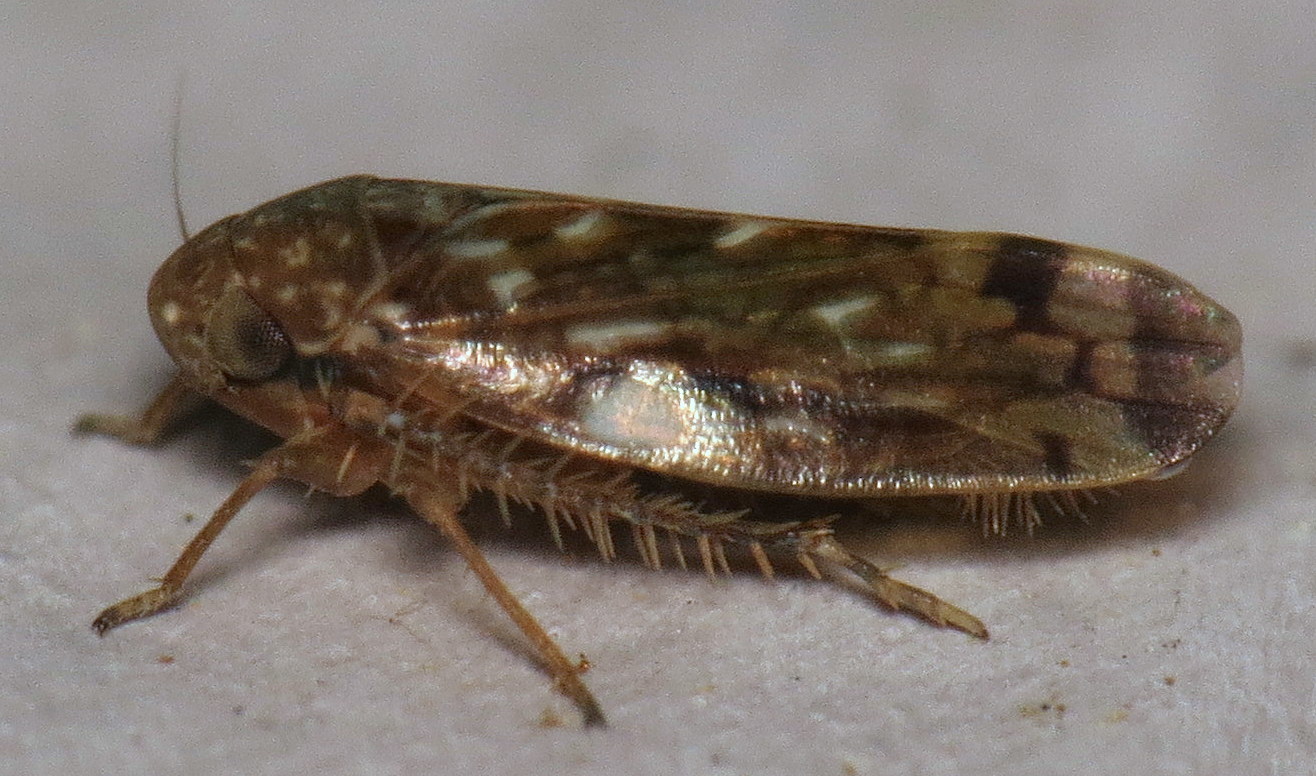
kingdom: Animalia
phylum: Arthropoda
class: Insecta
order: Hemiptera
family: Cicadellidae
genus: Xestocephalus
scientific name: Xestocephalus
